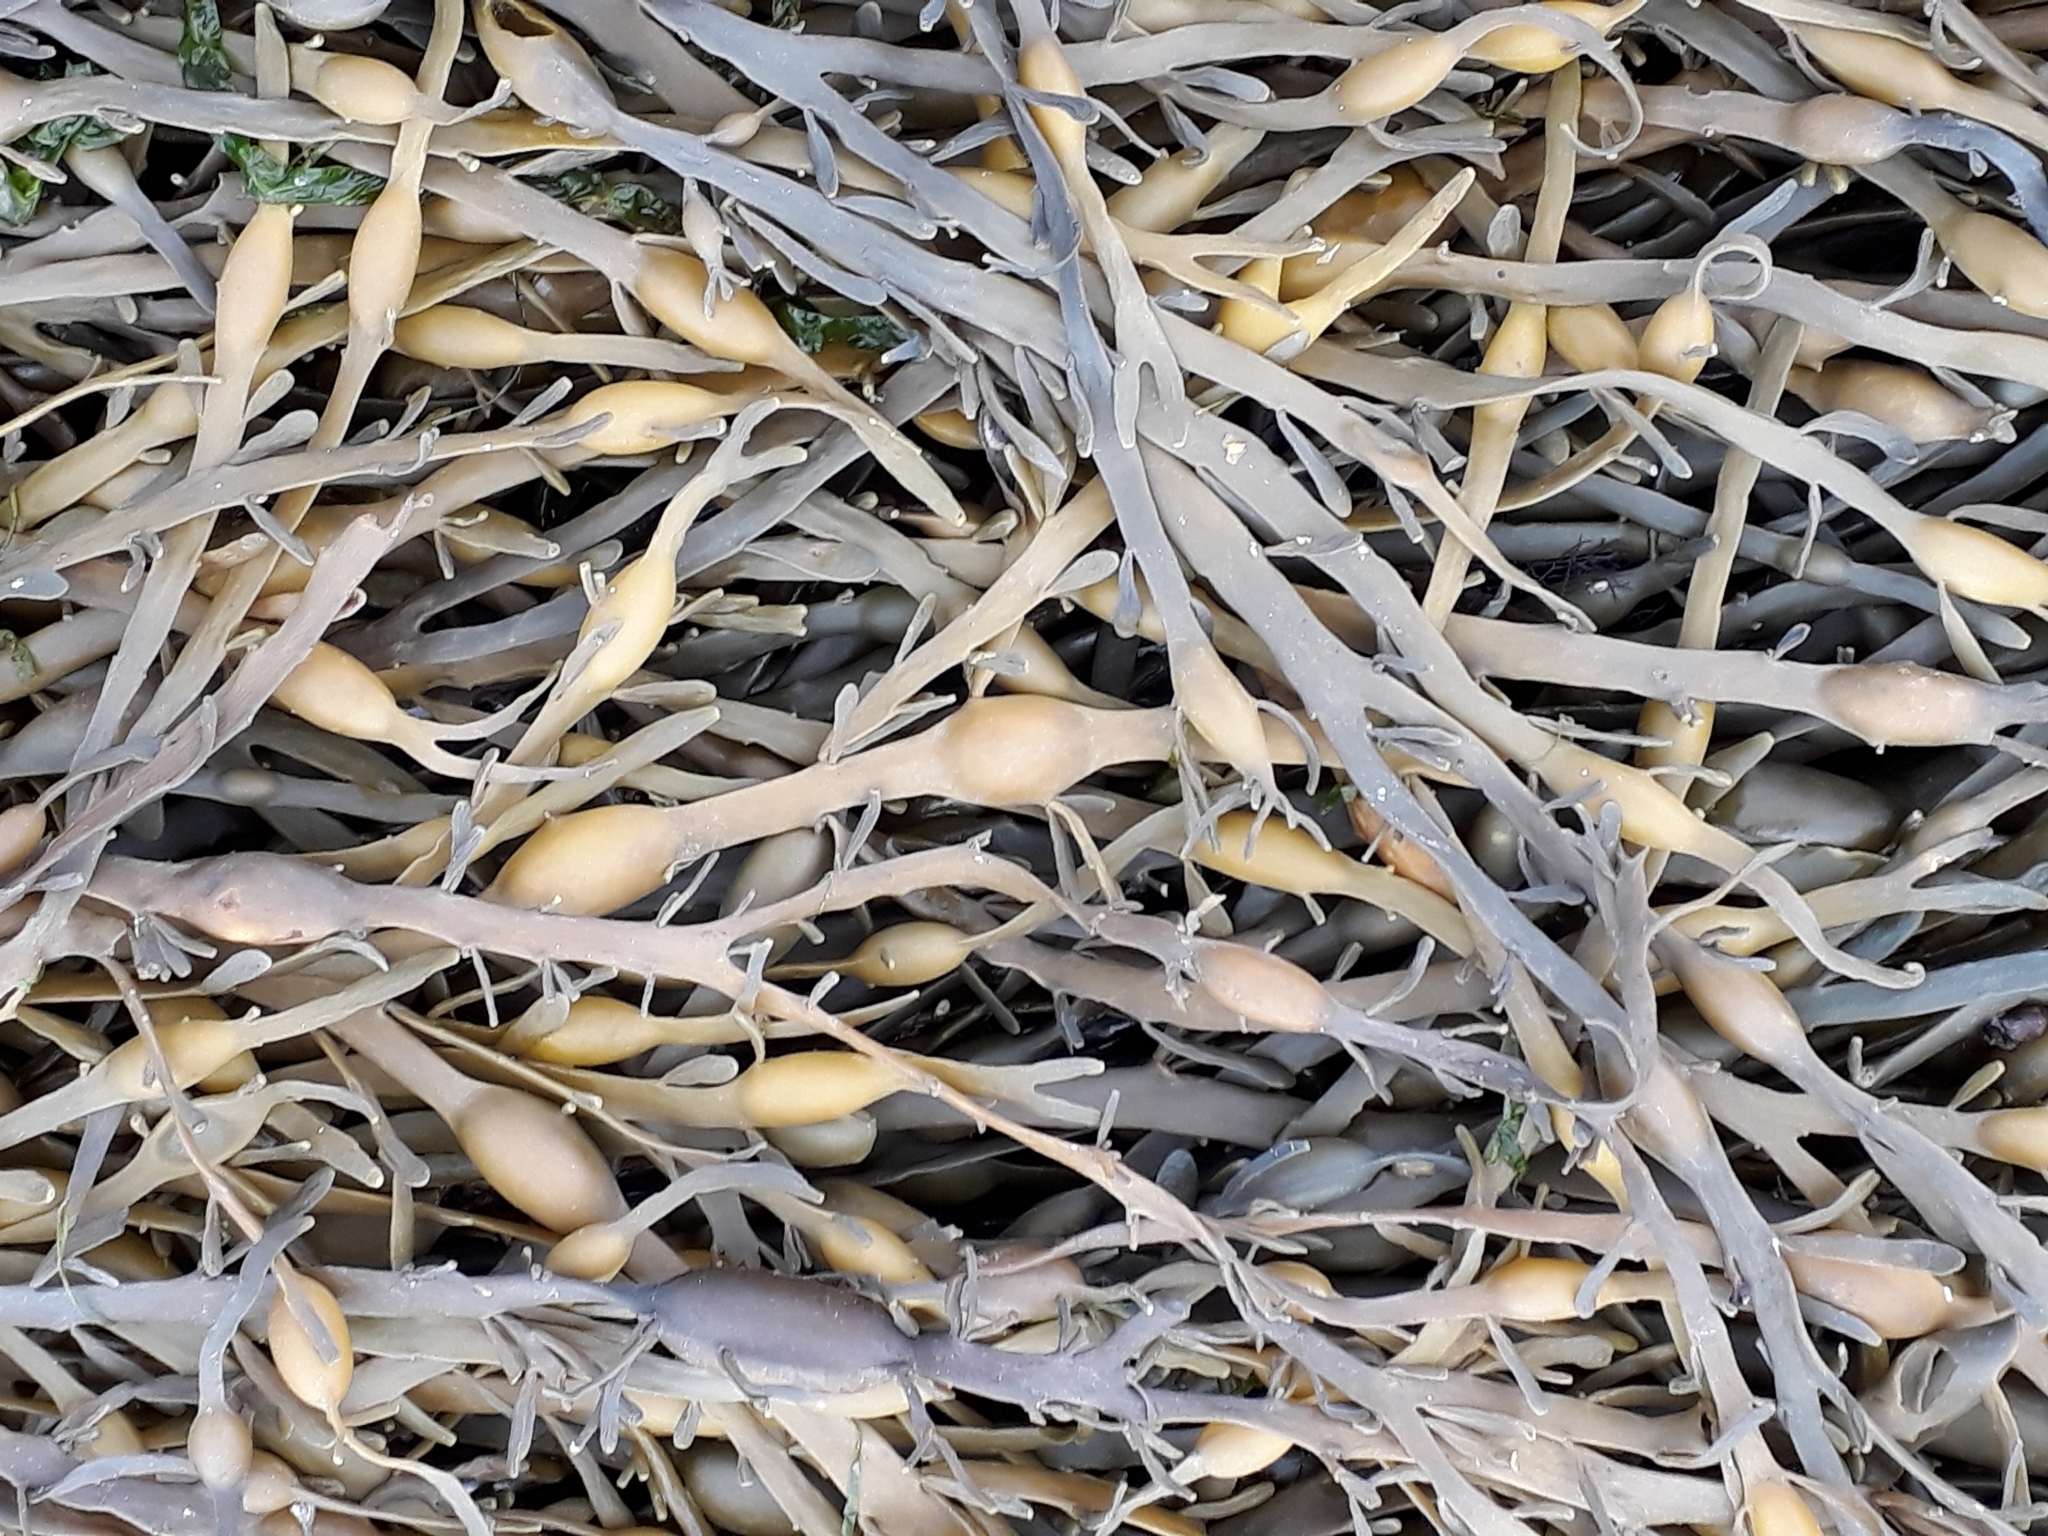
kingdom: Chromista
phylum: Ochrophyta
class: Phaeophyceae
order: Fucales
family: Fucaceae
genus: Ascophyllum
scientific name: Ascophyllum nodosum
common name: Knotted wrack
